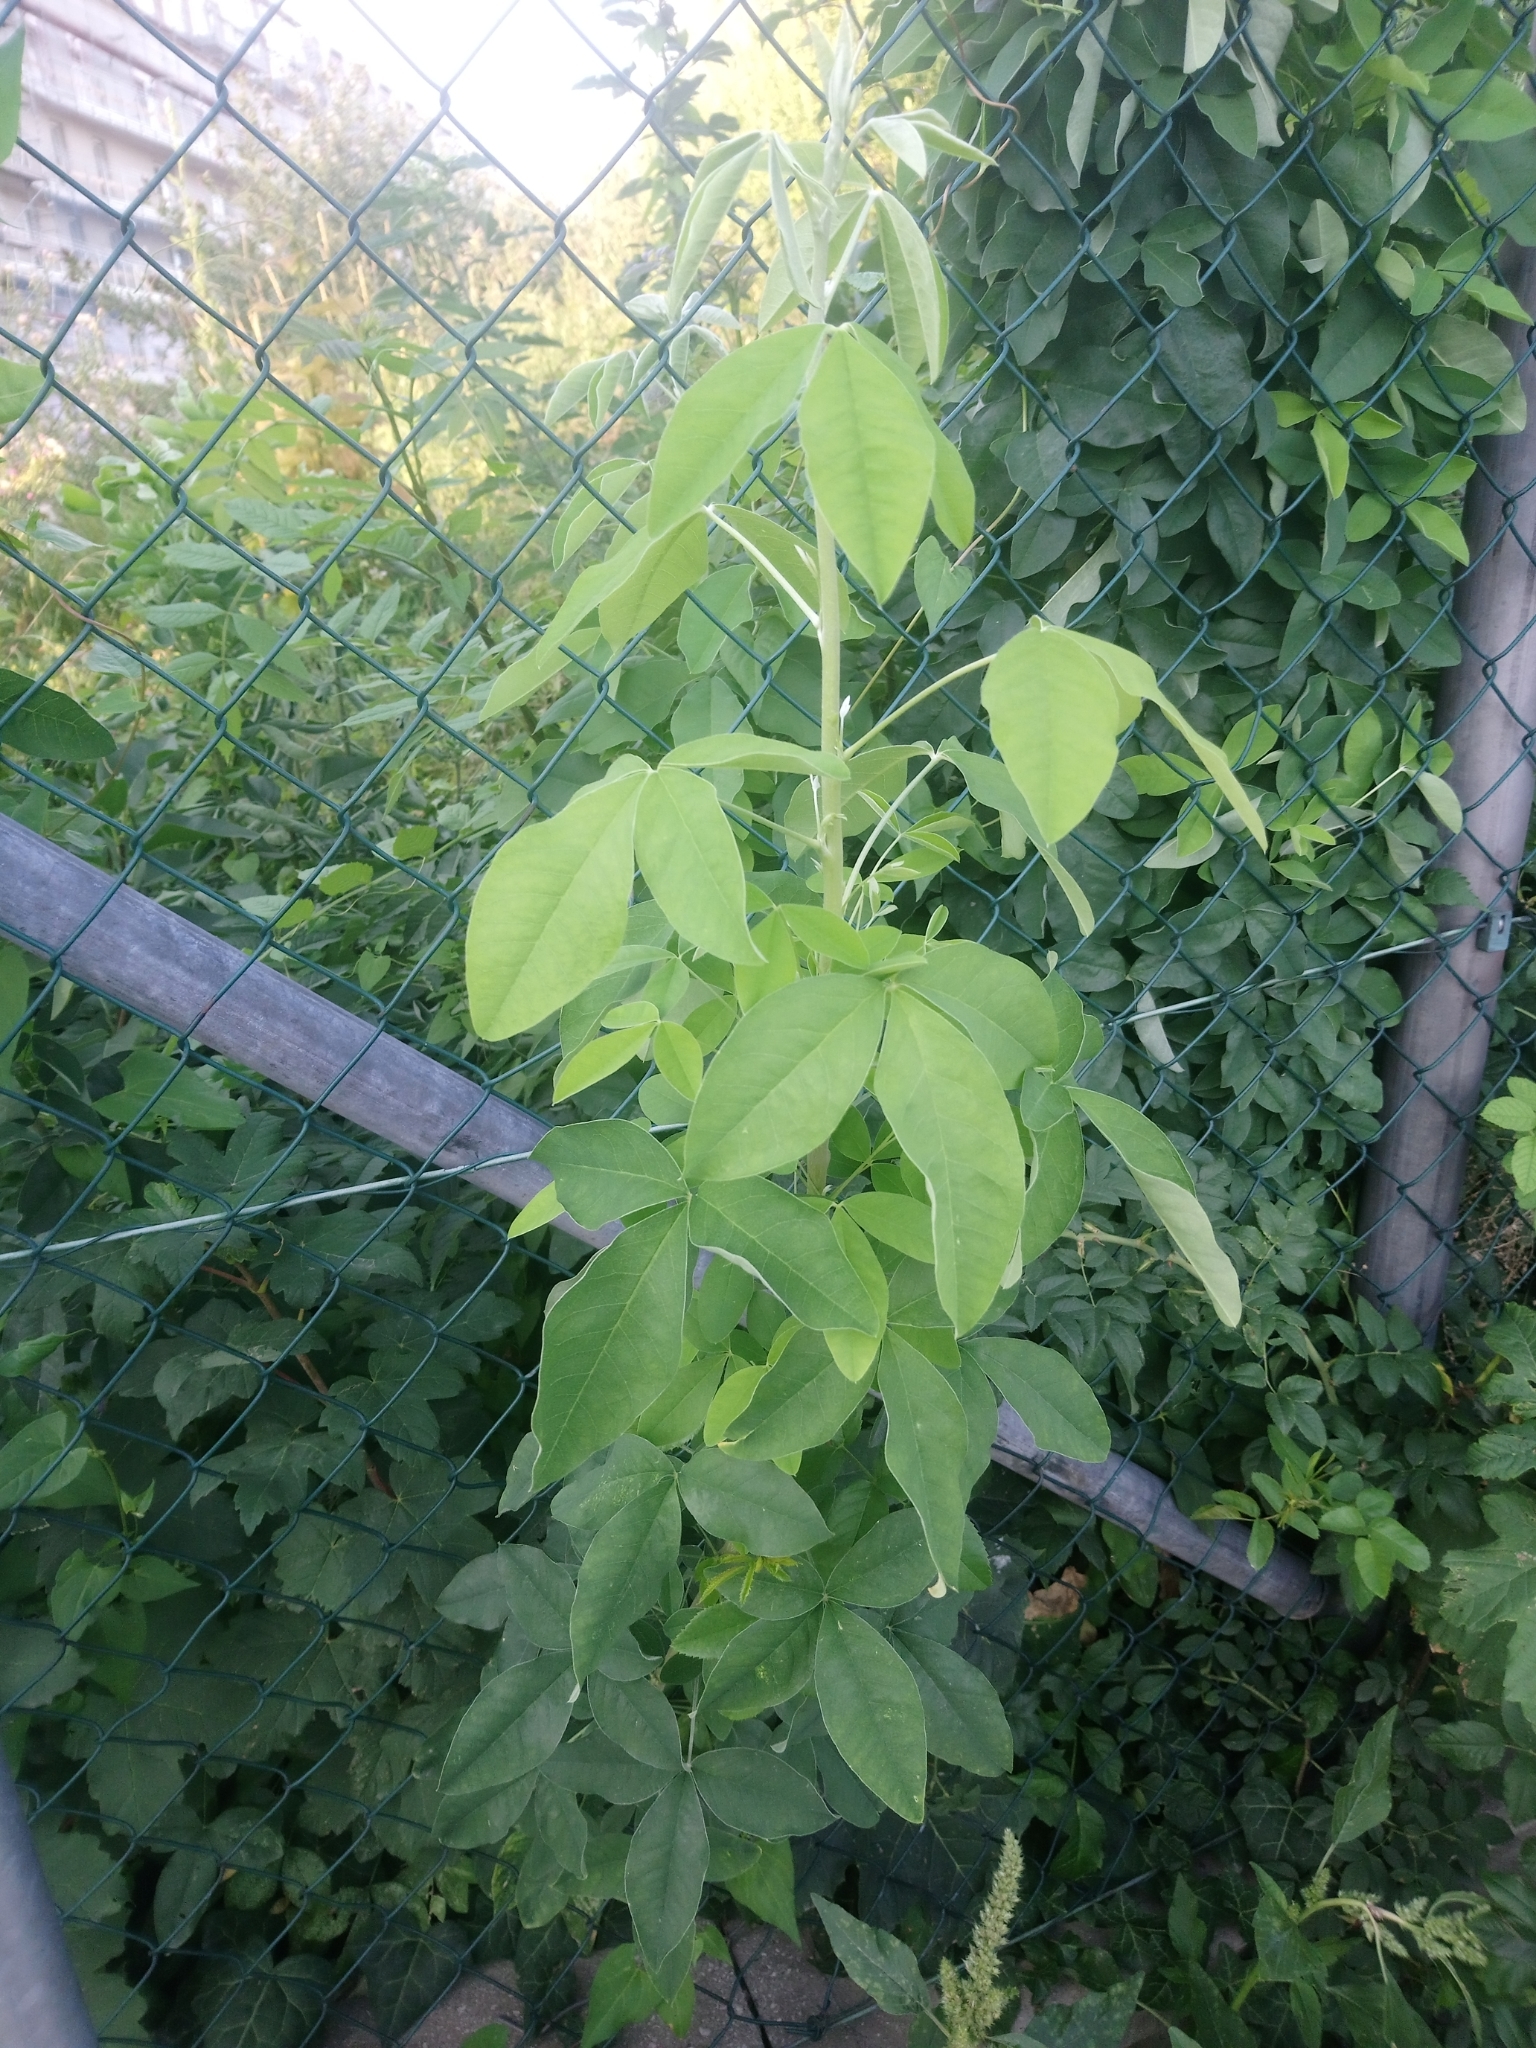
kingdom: Plantae
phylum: Tracheophyta
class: Magnoliopsida
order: Fabales
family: Fabaceae
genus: Laburnum
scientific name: Laburnum anagyroides
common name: Laburnum
